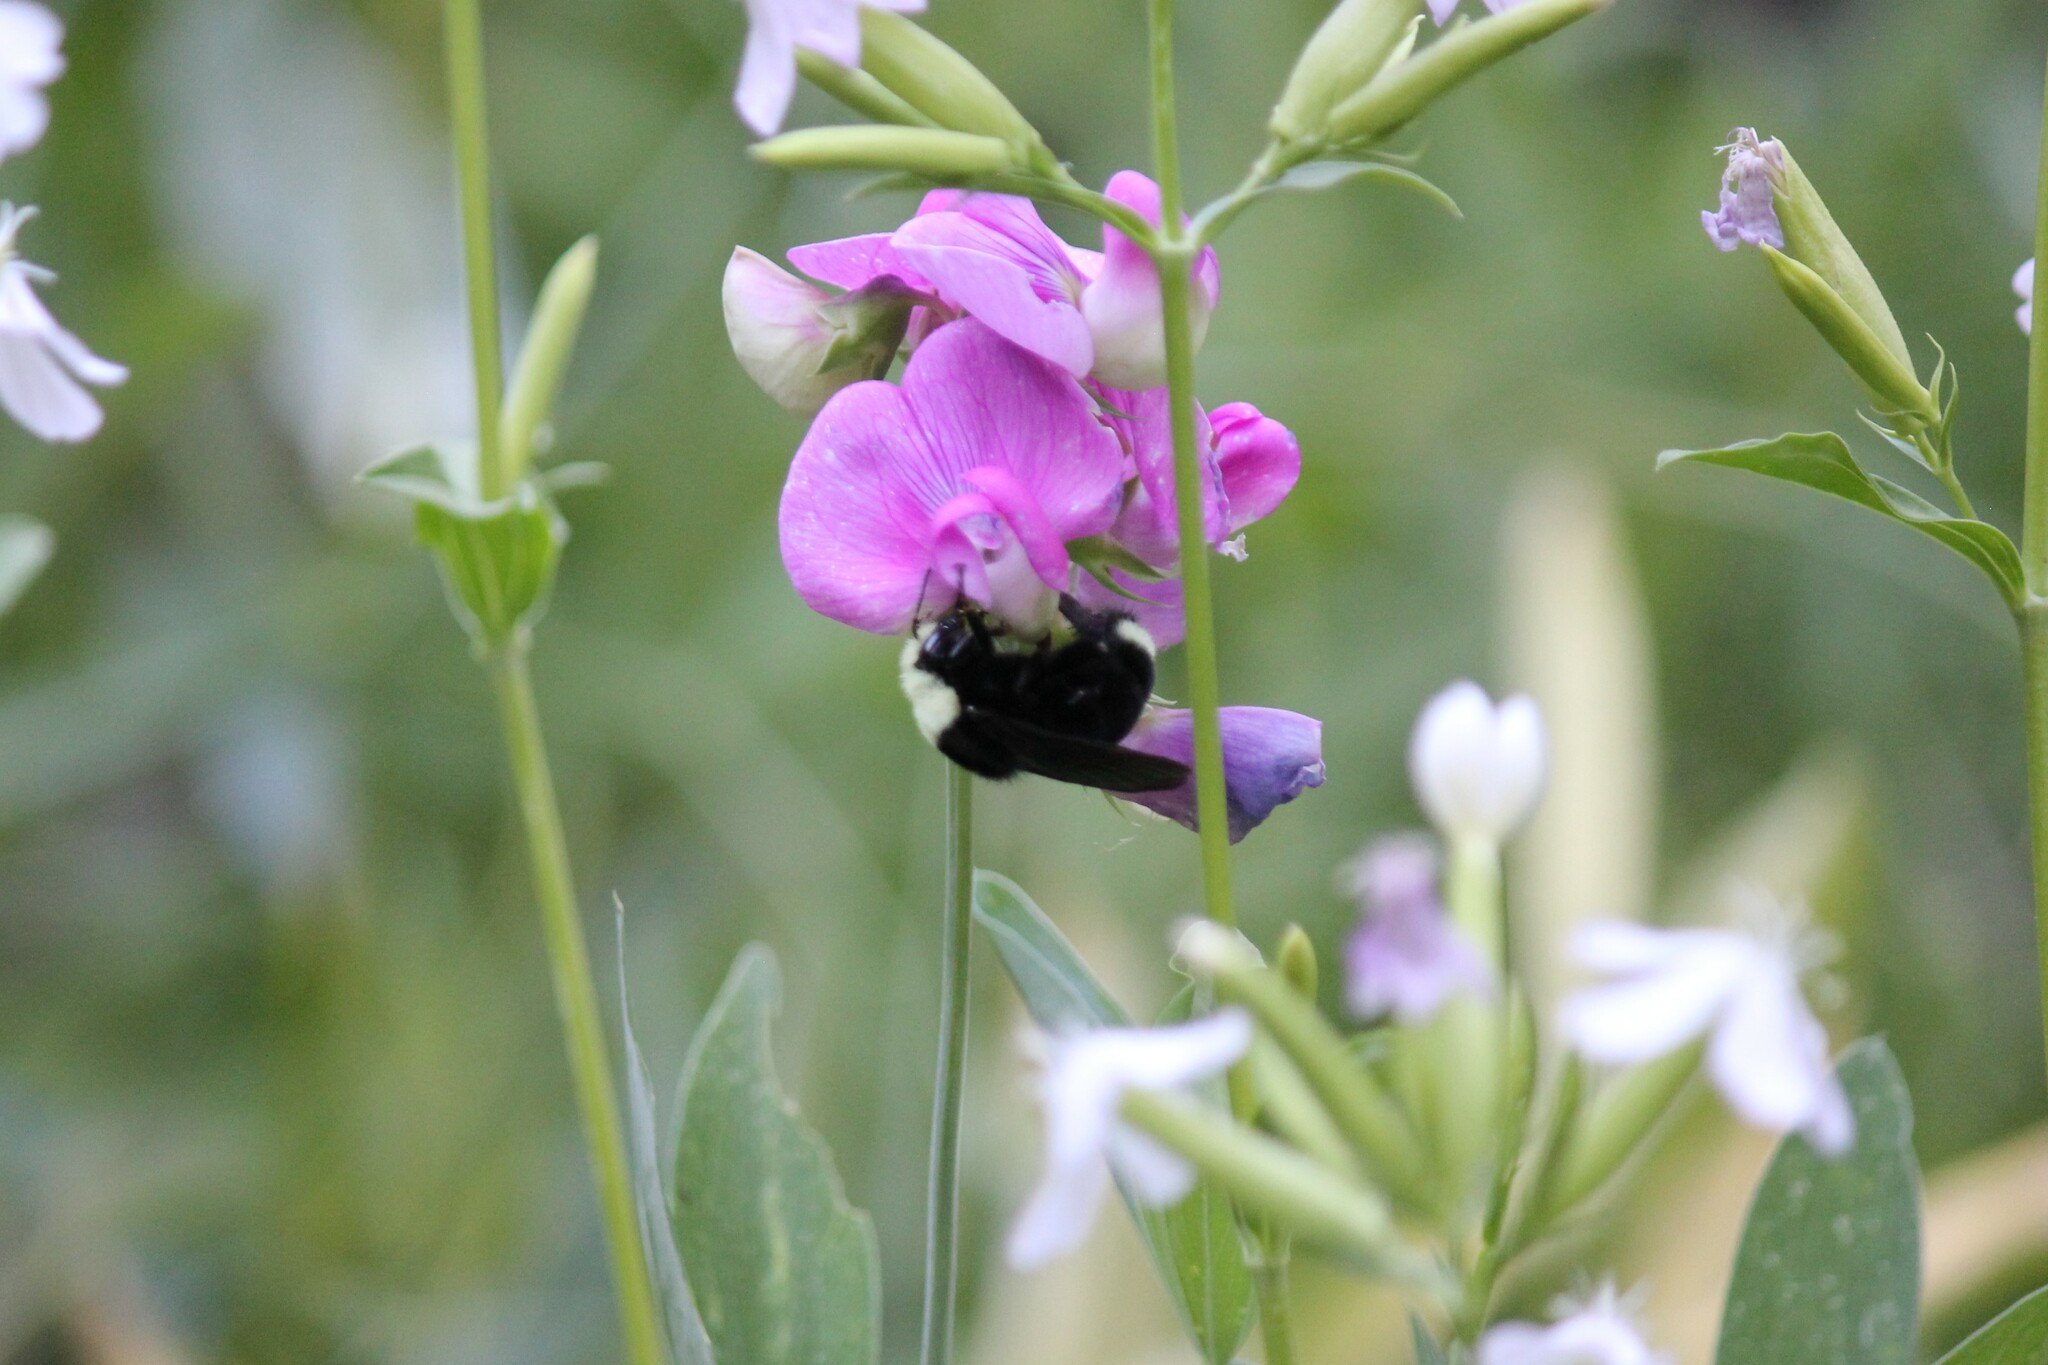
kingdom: Animalia
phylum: Arthropoda
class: Insecta
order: Hymenoptera
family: Apidae
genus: Bombus
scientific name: Bombus vosnesenskii
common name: Vosnesensky bumble bee
